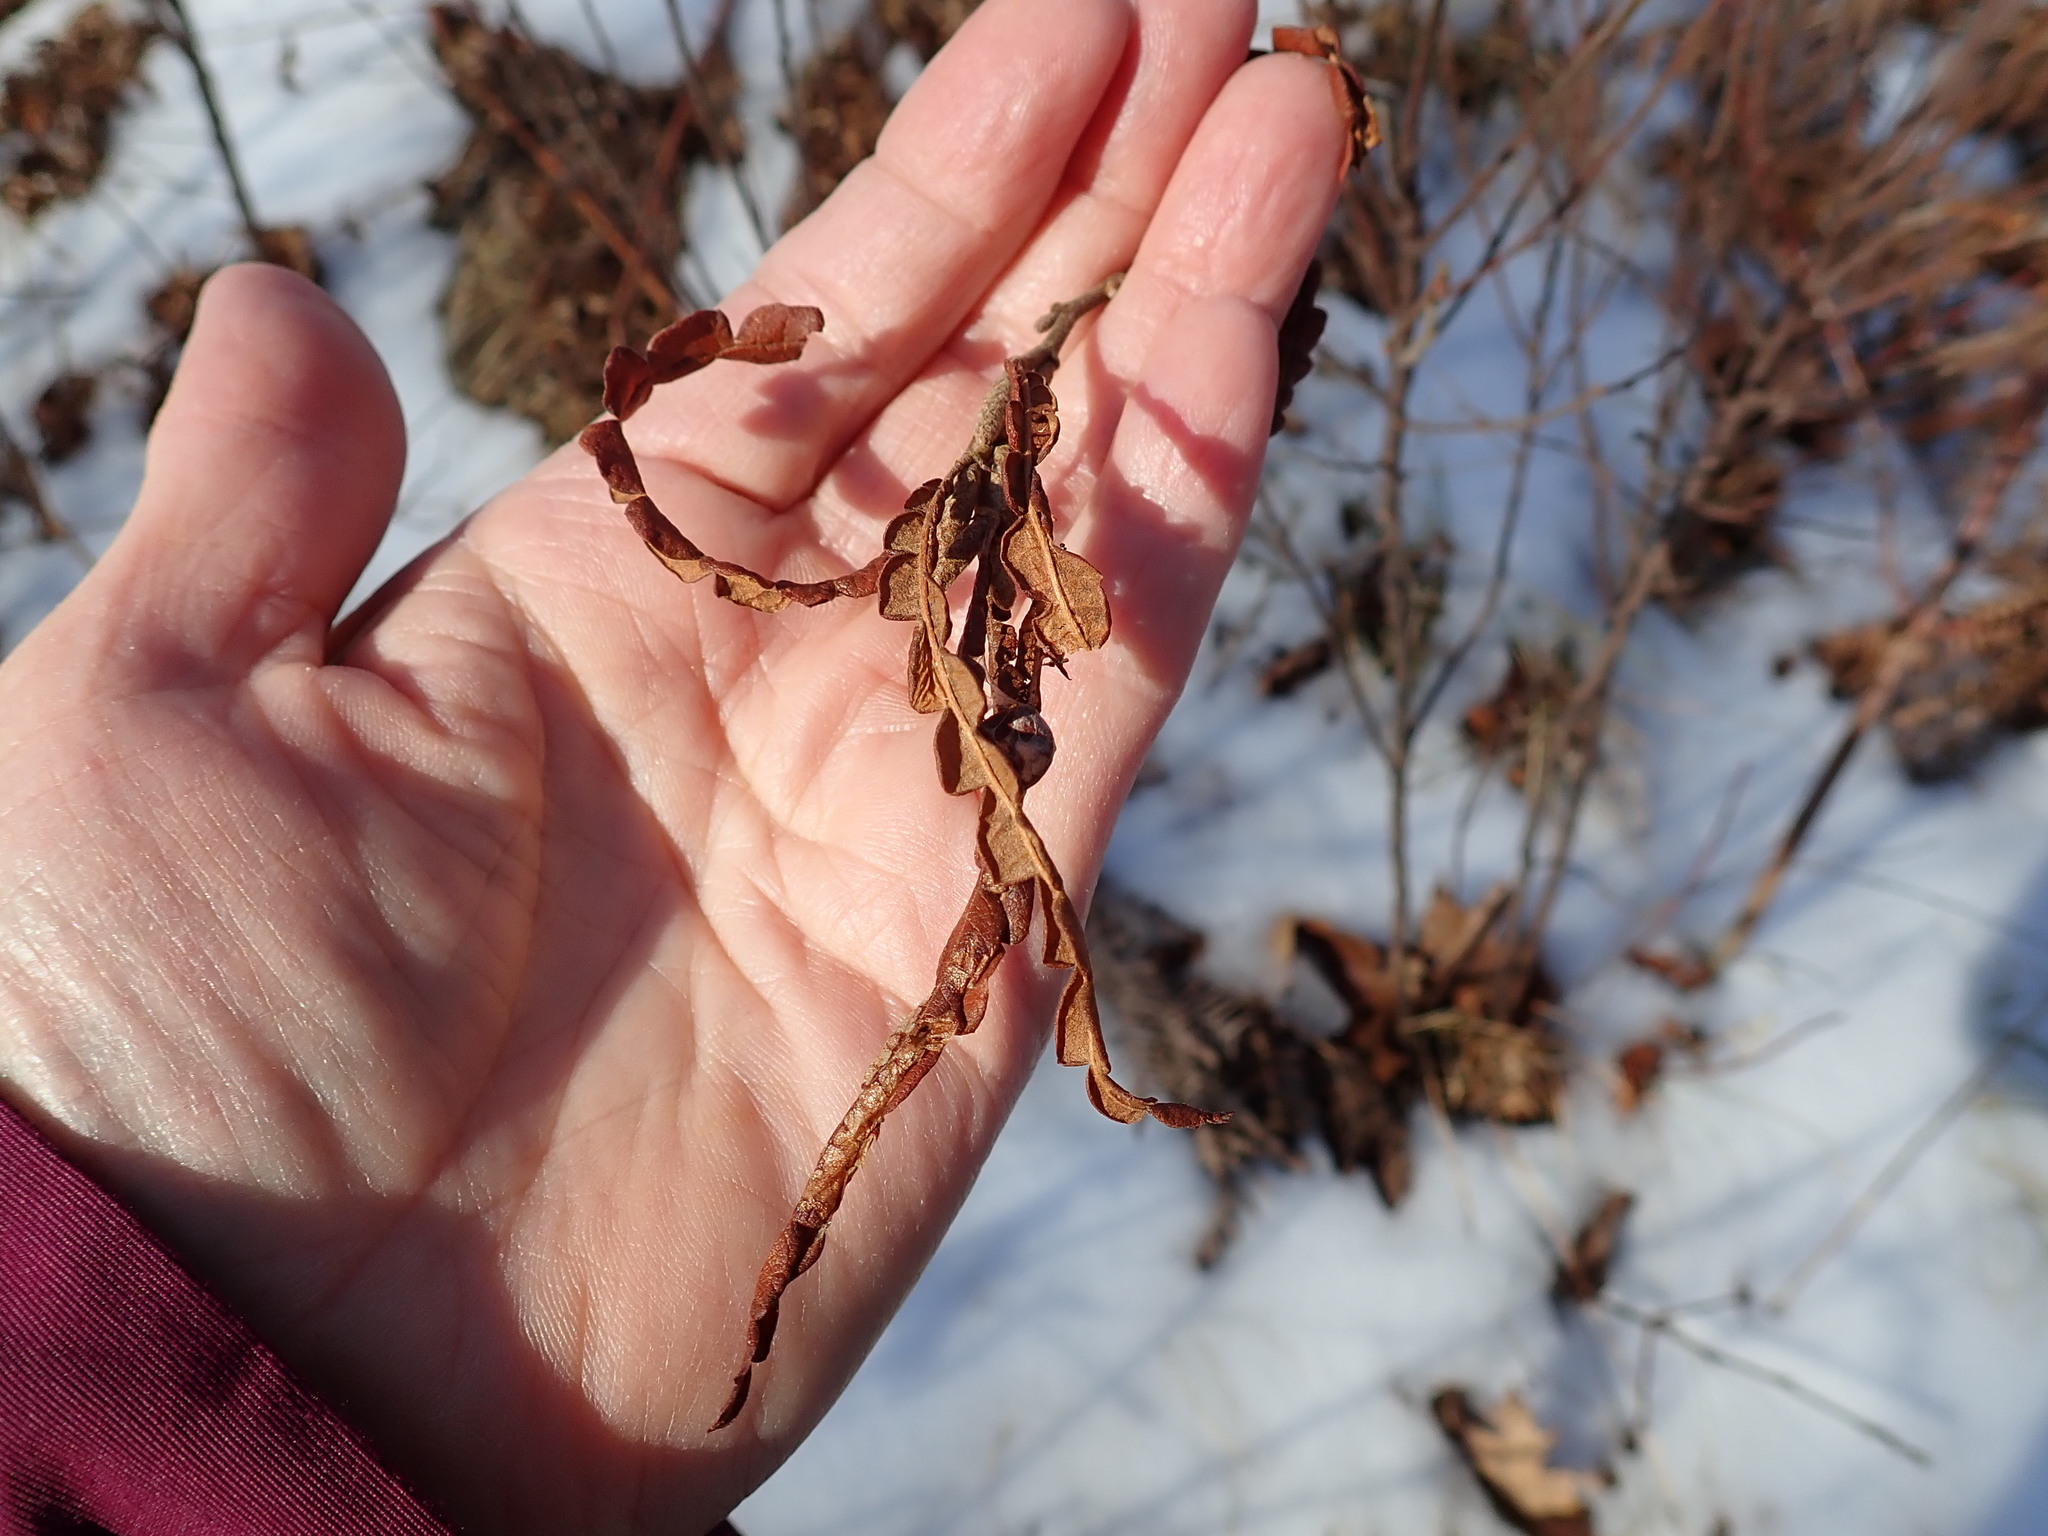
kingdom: Plantae
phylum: Tracheophyta
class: Magnoliopsida
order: Fagales
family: Myricaceae
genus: Comptonia
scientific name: Comptonia peregrina
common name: Sweet-fern
